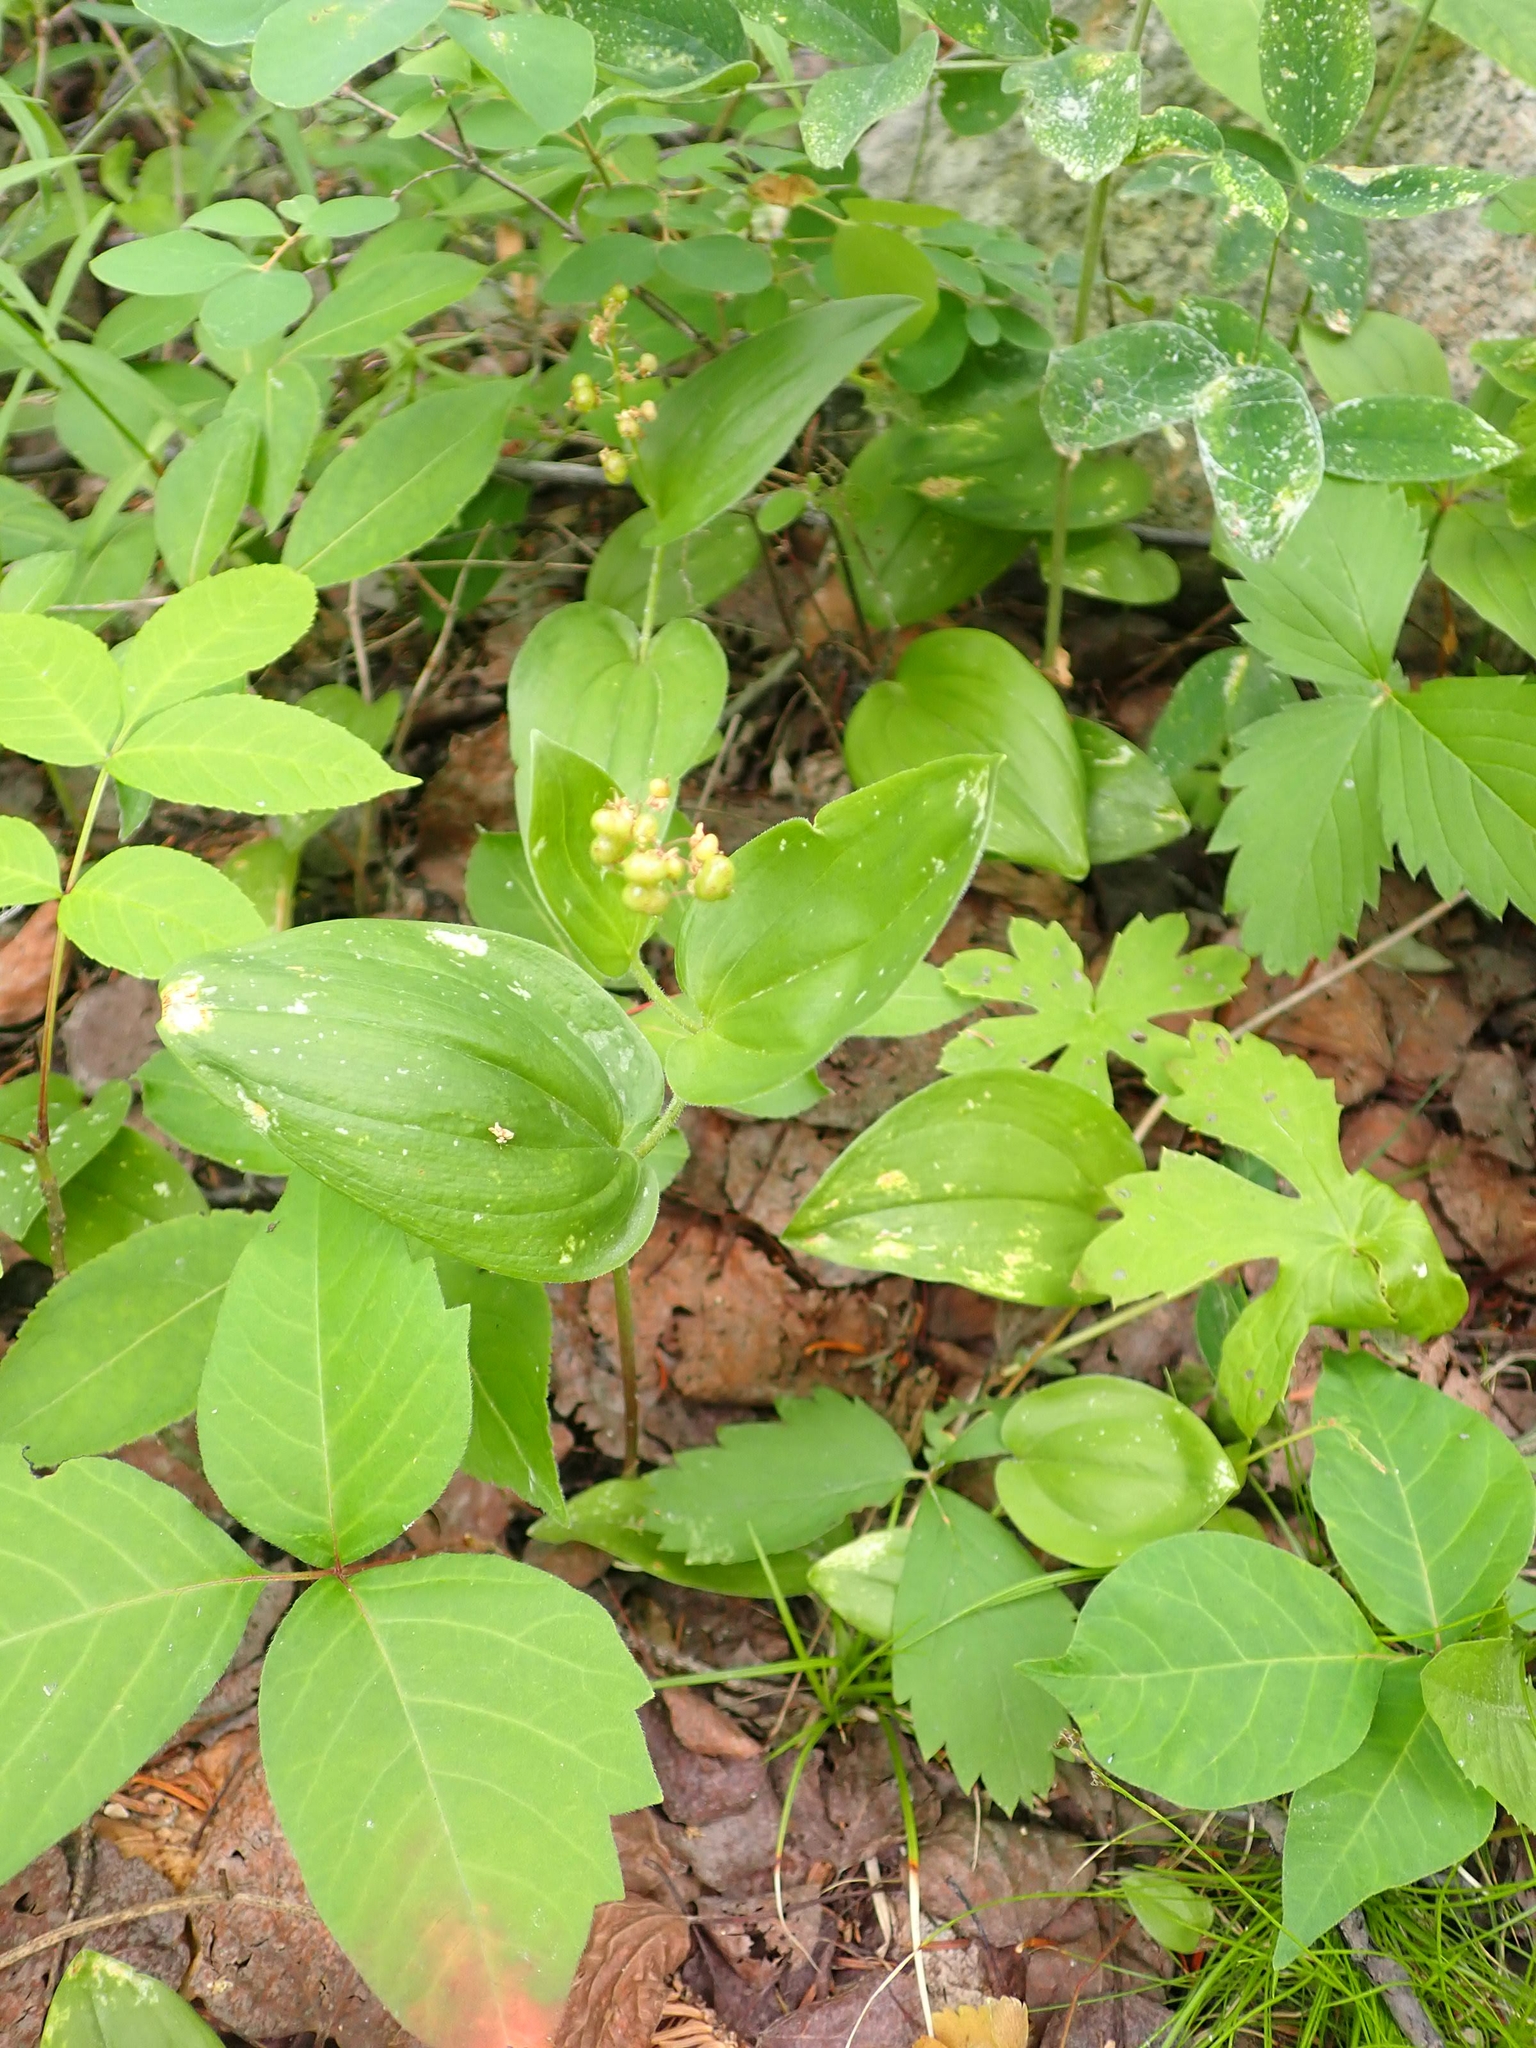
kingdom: Plantae
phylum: Tracheophyta
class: Liliopsida
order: Asparagales
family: Asparagaceae
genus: Maianthemum
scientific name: Maianthemum canadense
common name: False lily-of-the-valley
